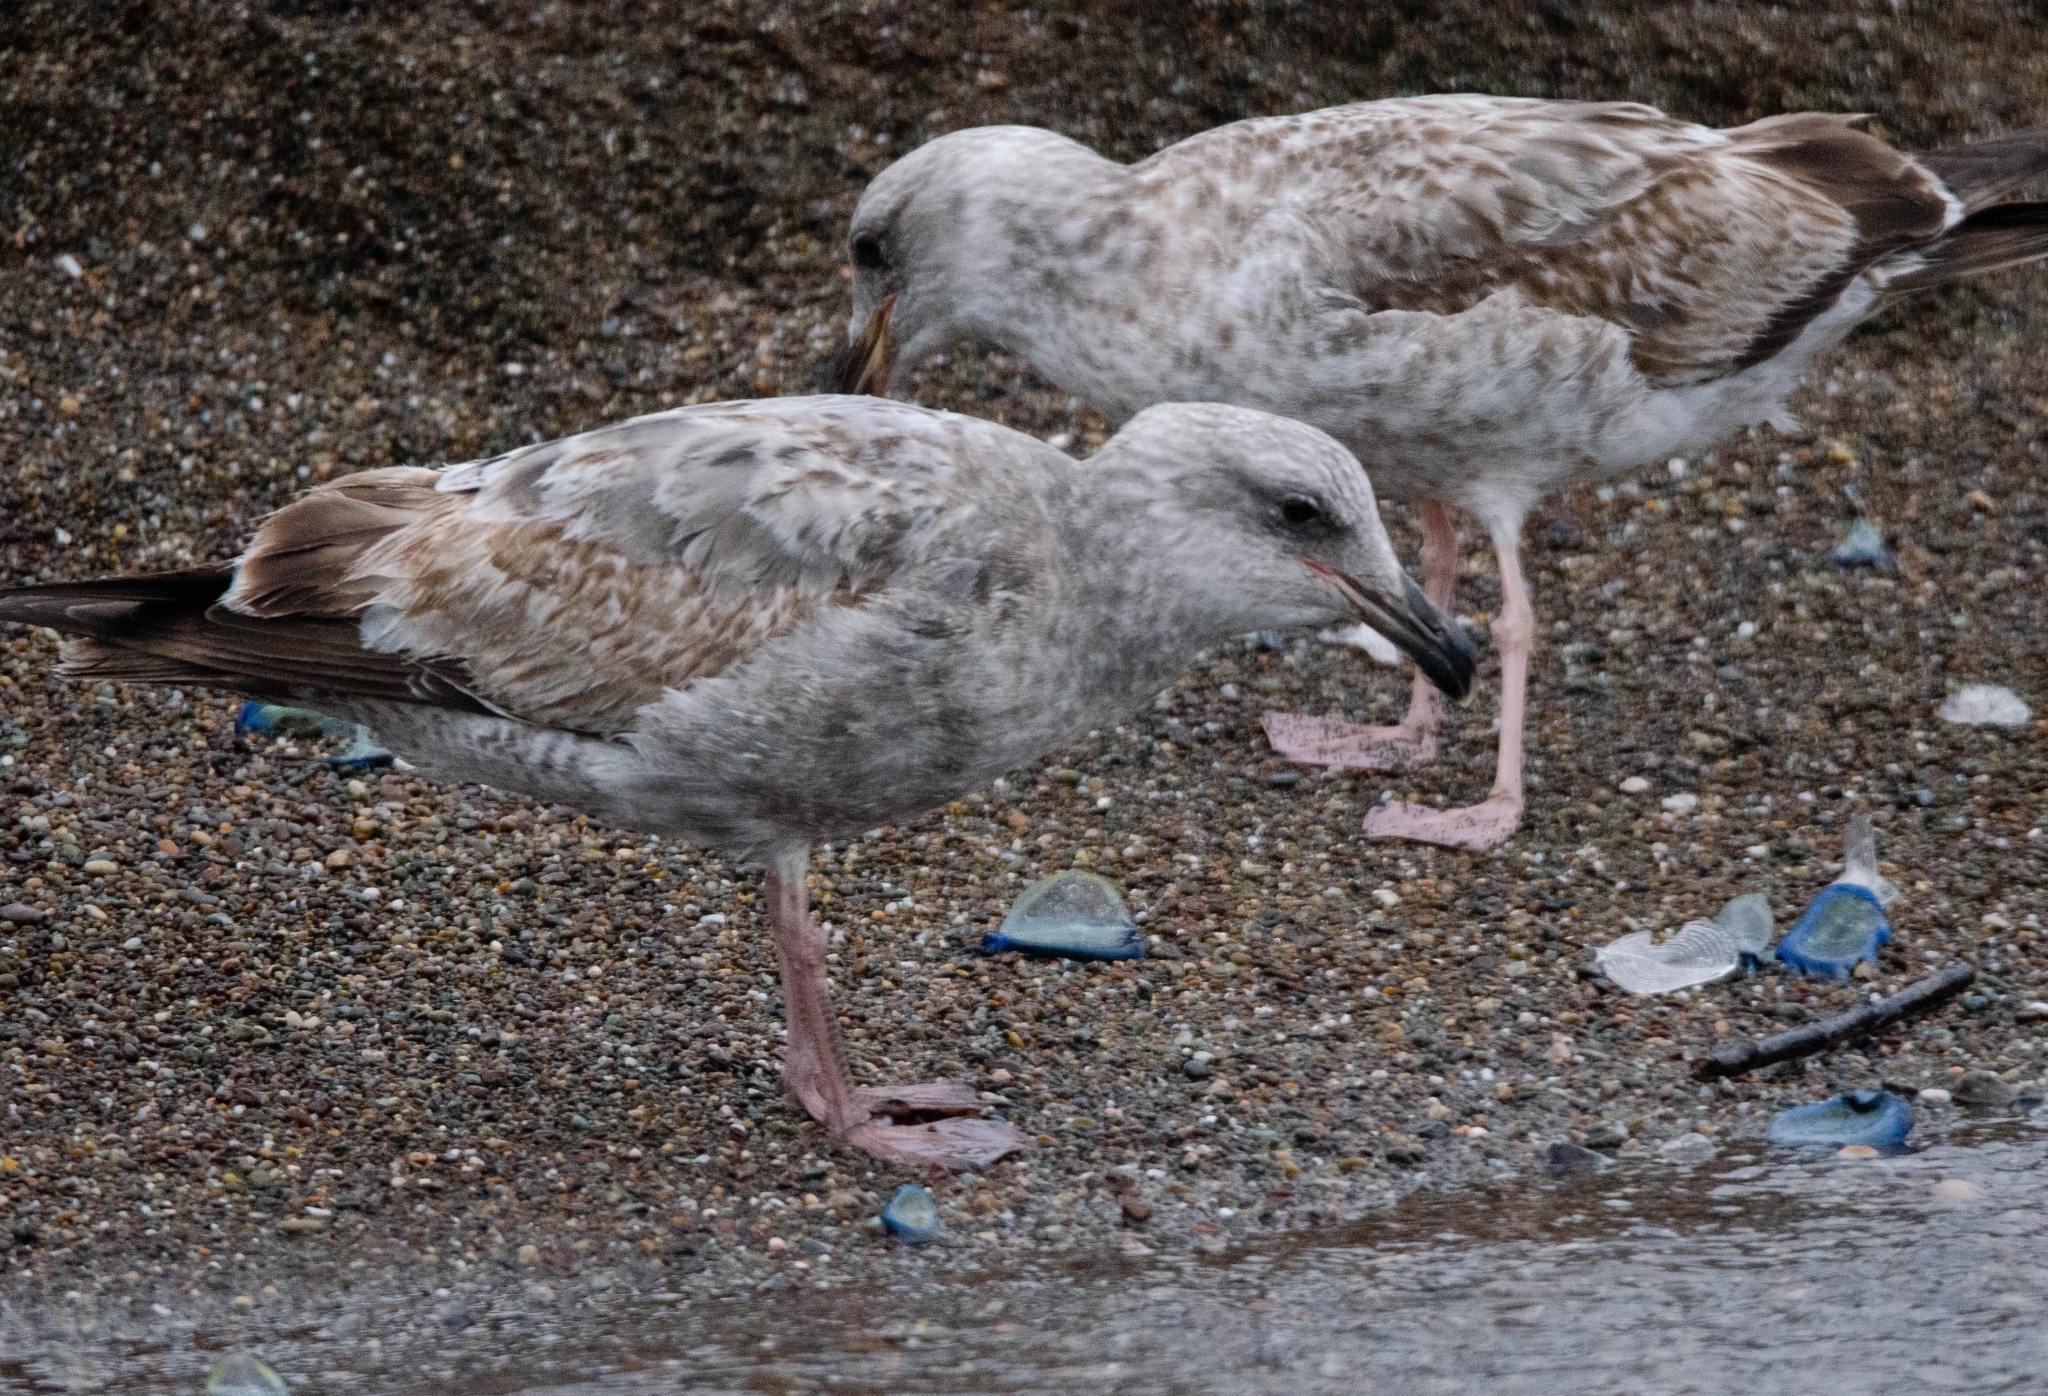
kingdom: Animalia
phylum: Chordata
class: Aves
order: Charadriiformes
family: Laridae
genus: Larus
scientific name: Larus occidentalis
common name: Western gull
